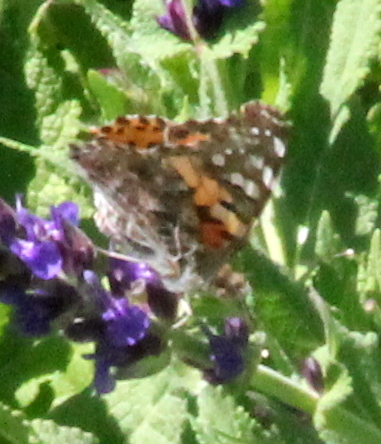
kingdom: Animalia
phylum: Arthropoda
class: Insecta
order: Lepidoptera
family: Nymphalidae
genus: Vanessa
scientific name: Vanessa cardui
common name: Painted lady
